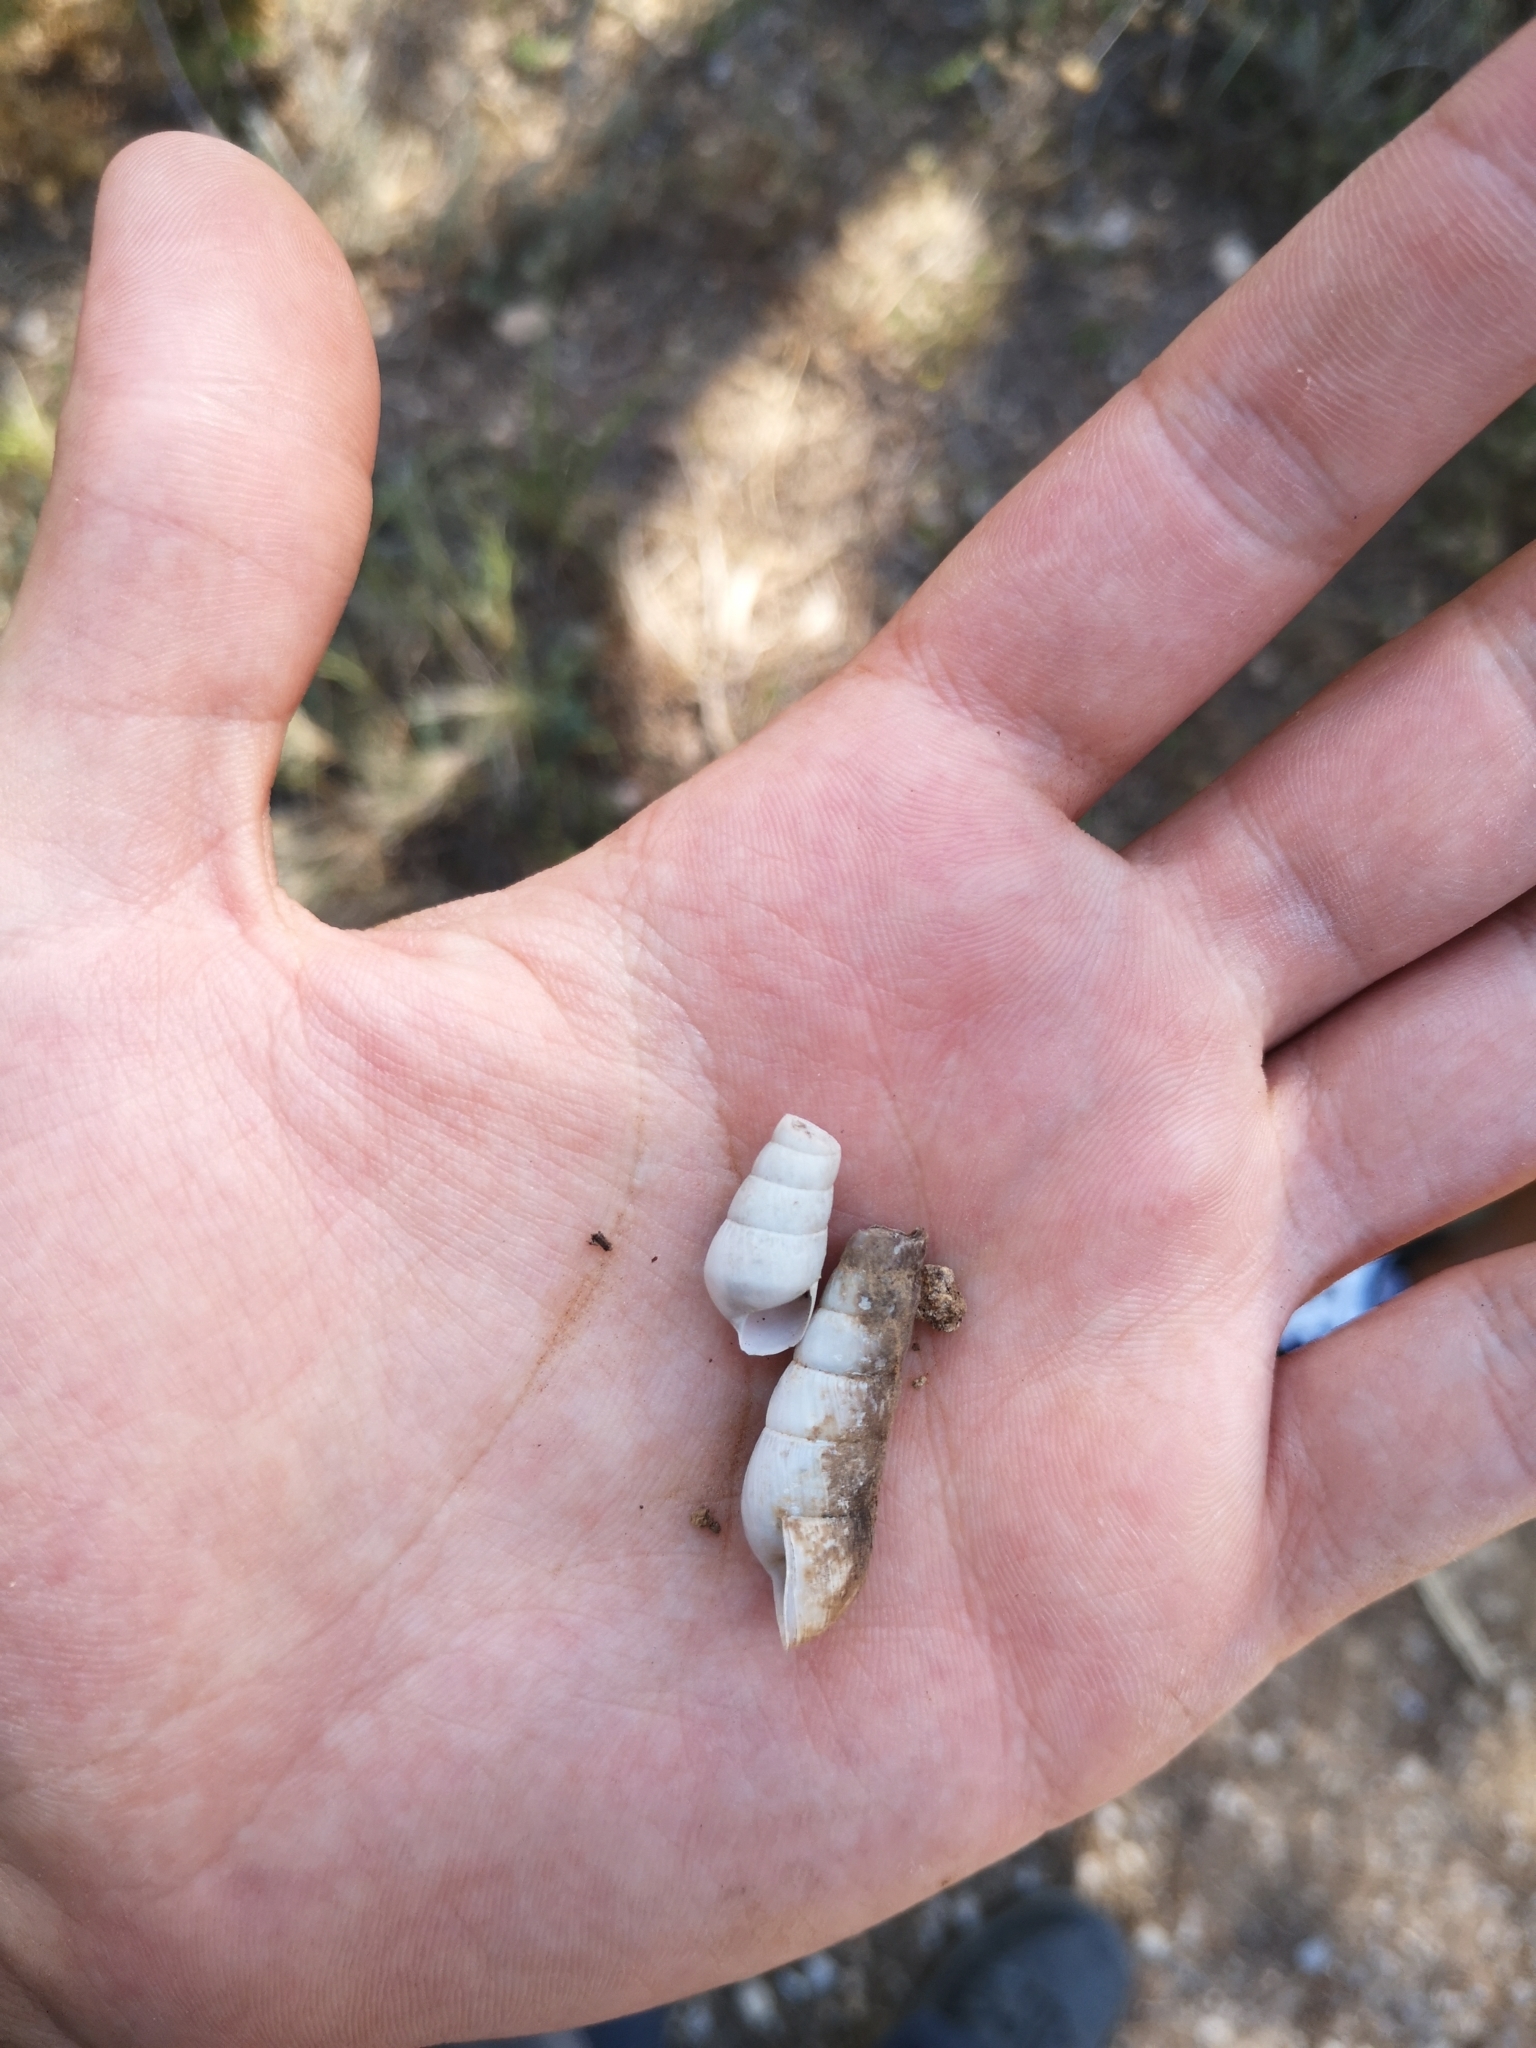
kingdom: Animalia
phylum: Mollusca
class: Gastropoda
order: Stylommatophora
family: Achatinidae
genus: Rumina
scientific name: Rumina decollata
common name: Decollate snail
